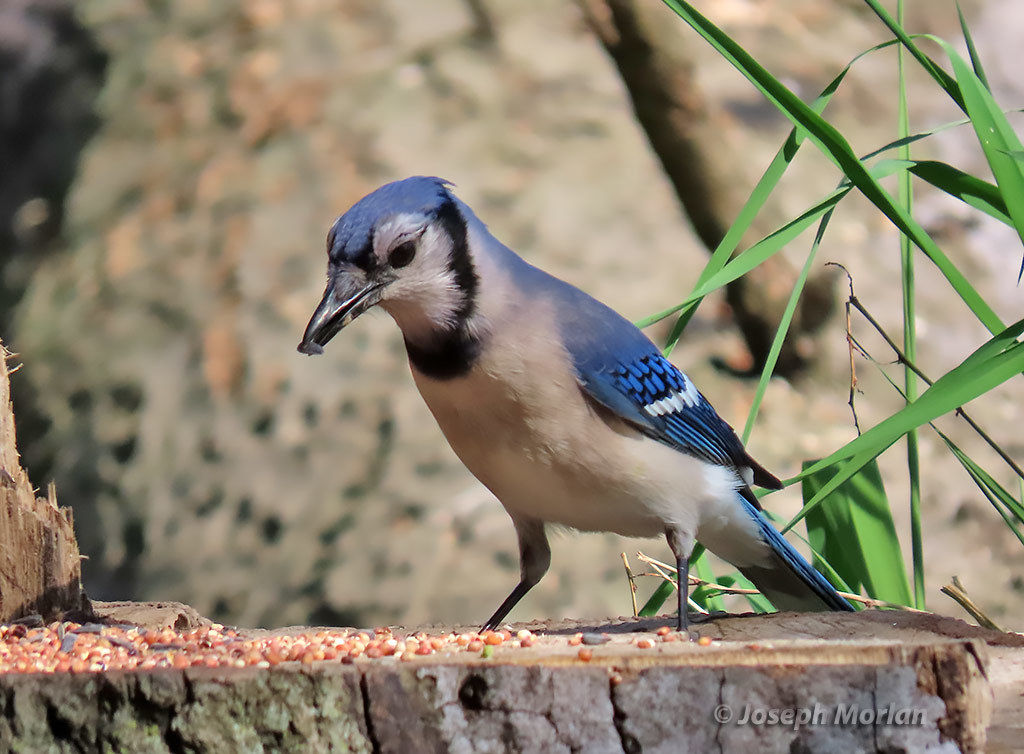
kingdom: Animalia
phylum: Chordata
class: Aves
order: Passeriformes
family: Corvidae
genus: Cyanocitta
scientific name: Cyanocitta cristata
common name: Blue jay
